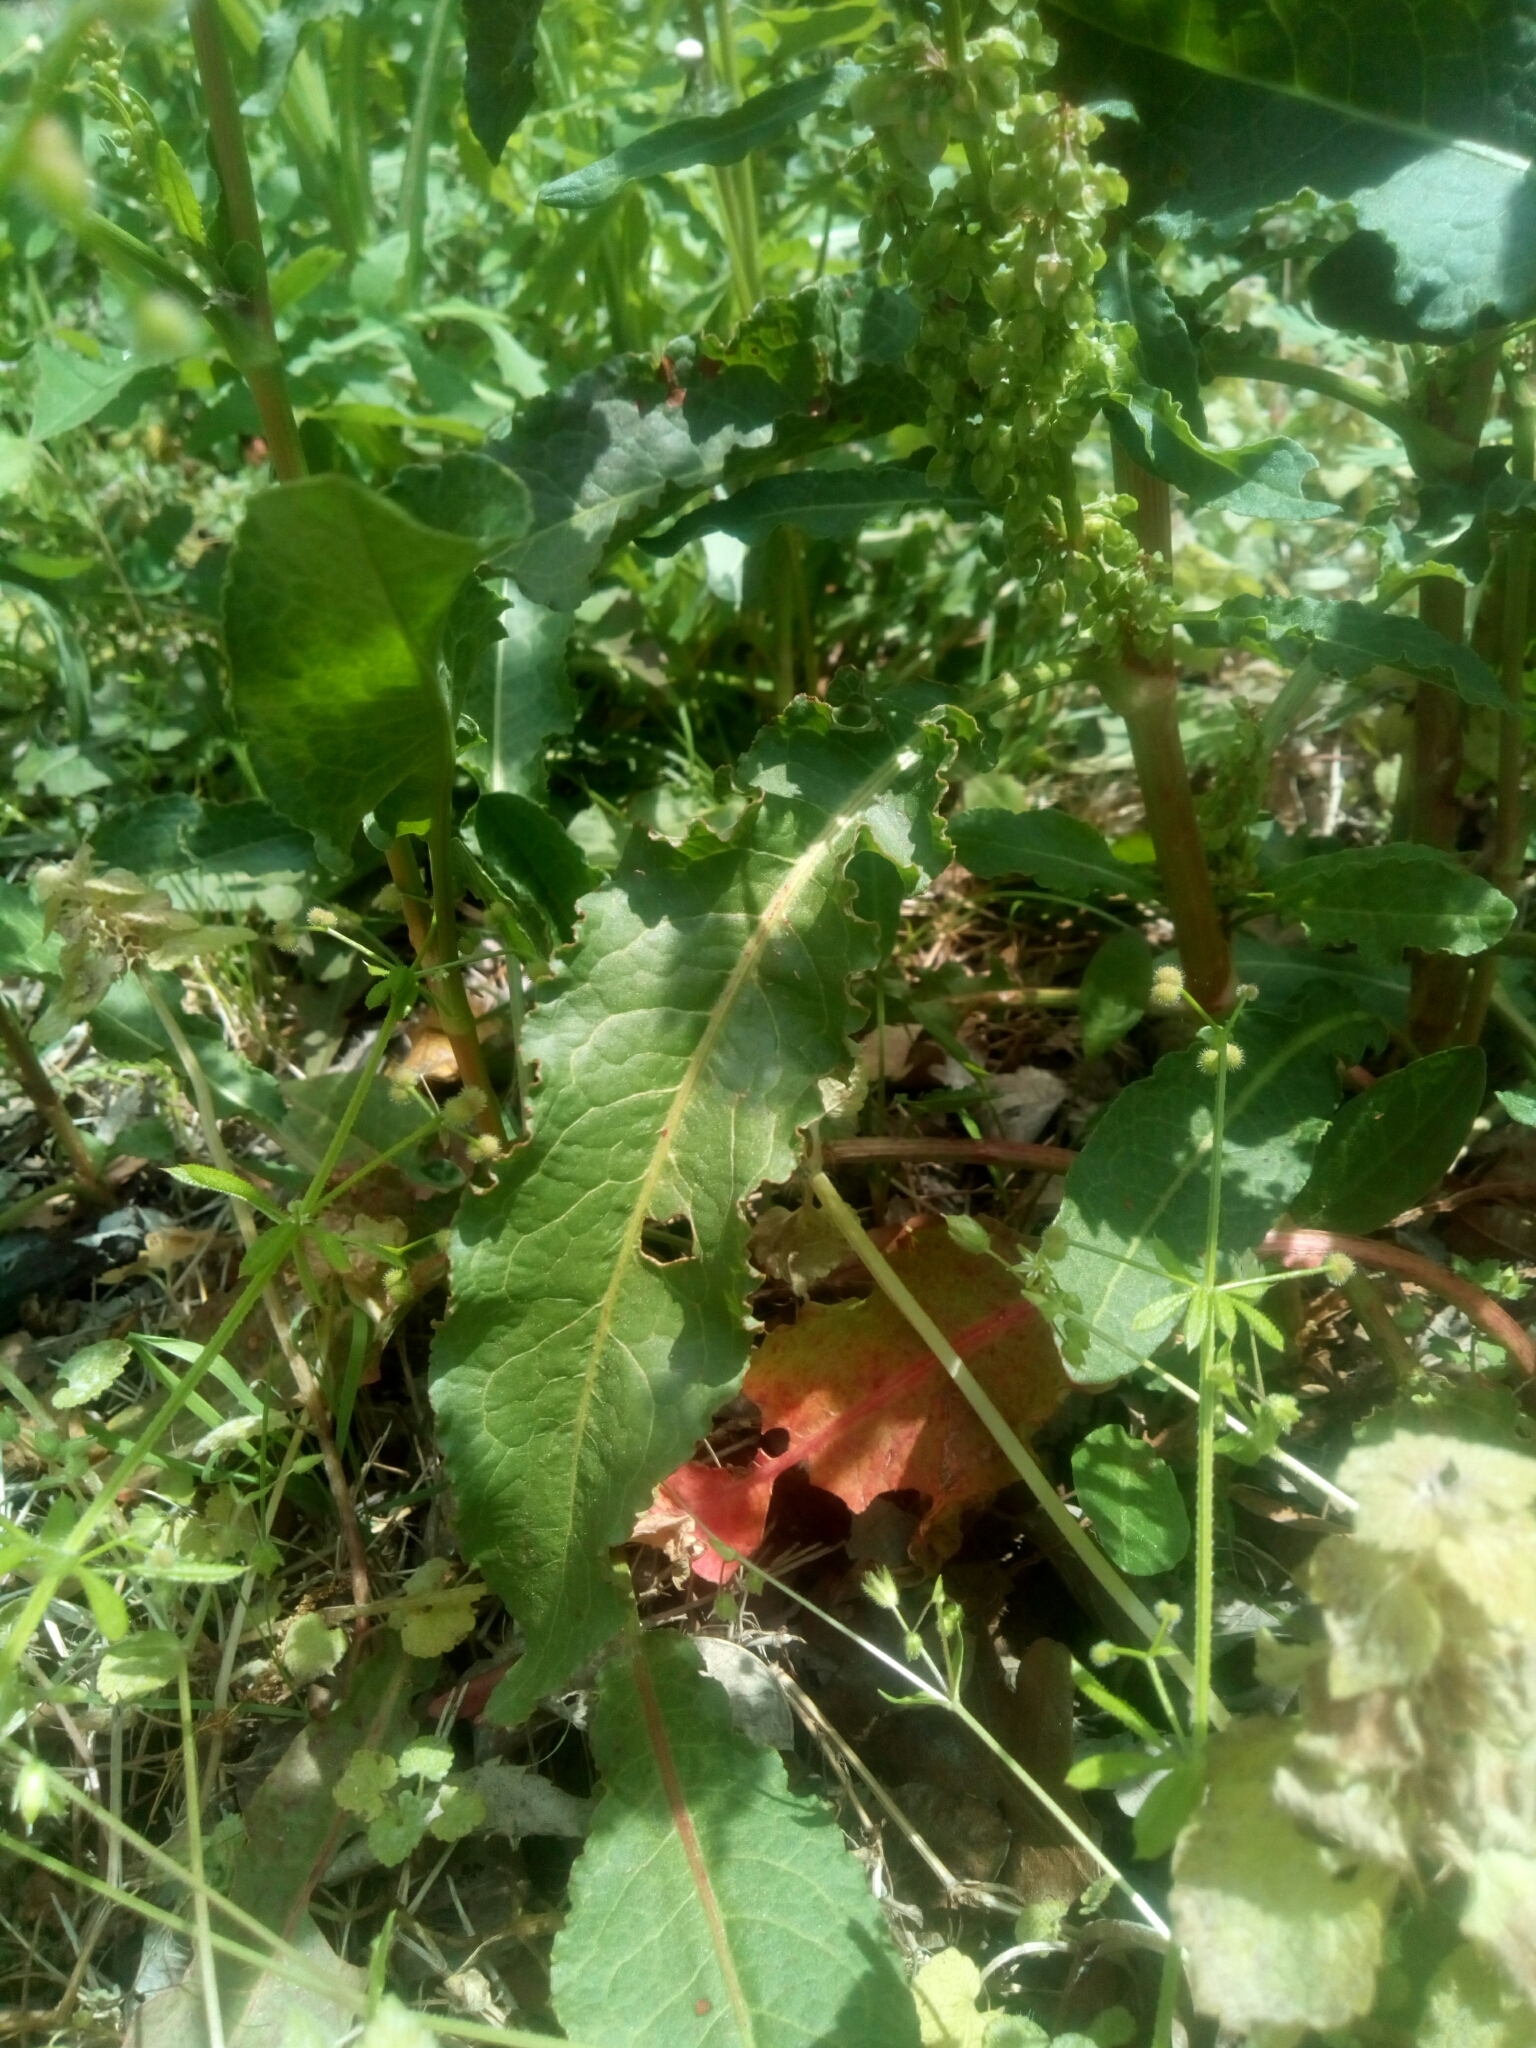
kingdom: Plantae
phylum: Tracheophyta
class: Magnoliopsida
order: Caryophyllales
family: Polygonaceae
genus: Rumex
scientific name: Rumex crispus
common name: Curled dock
